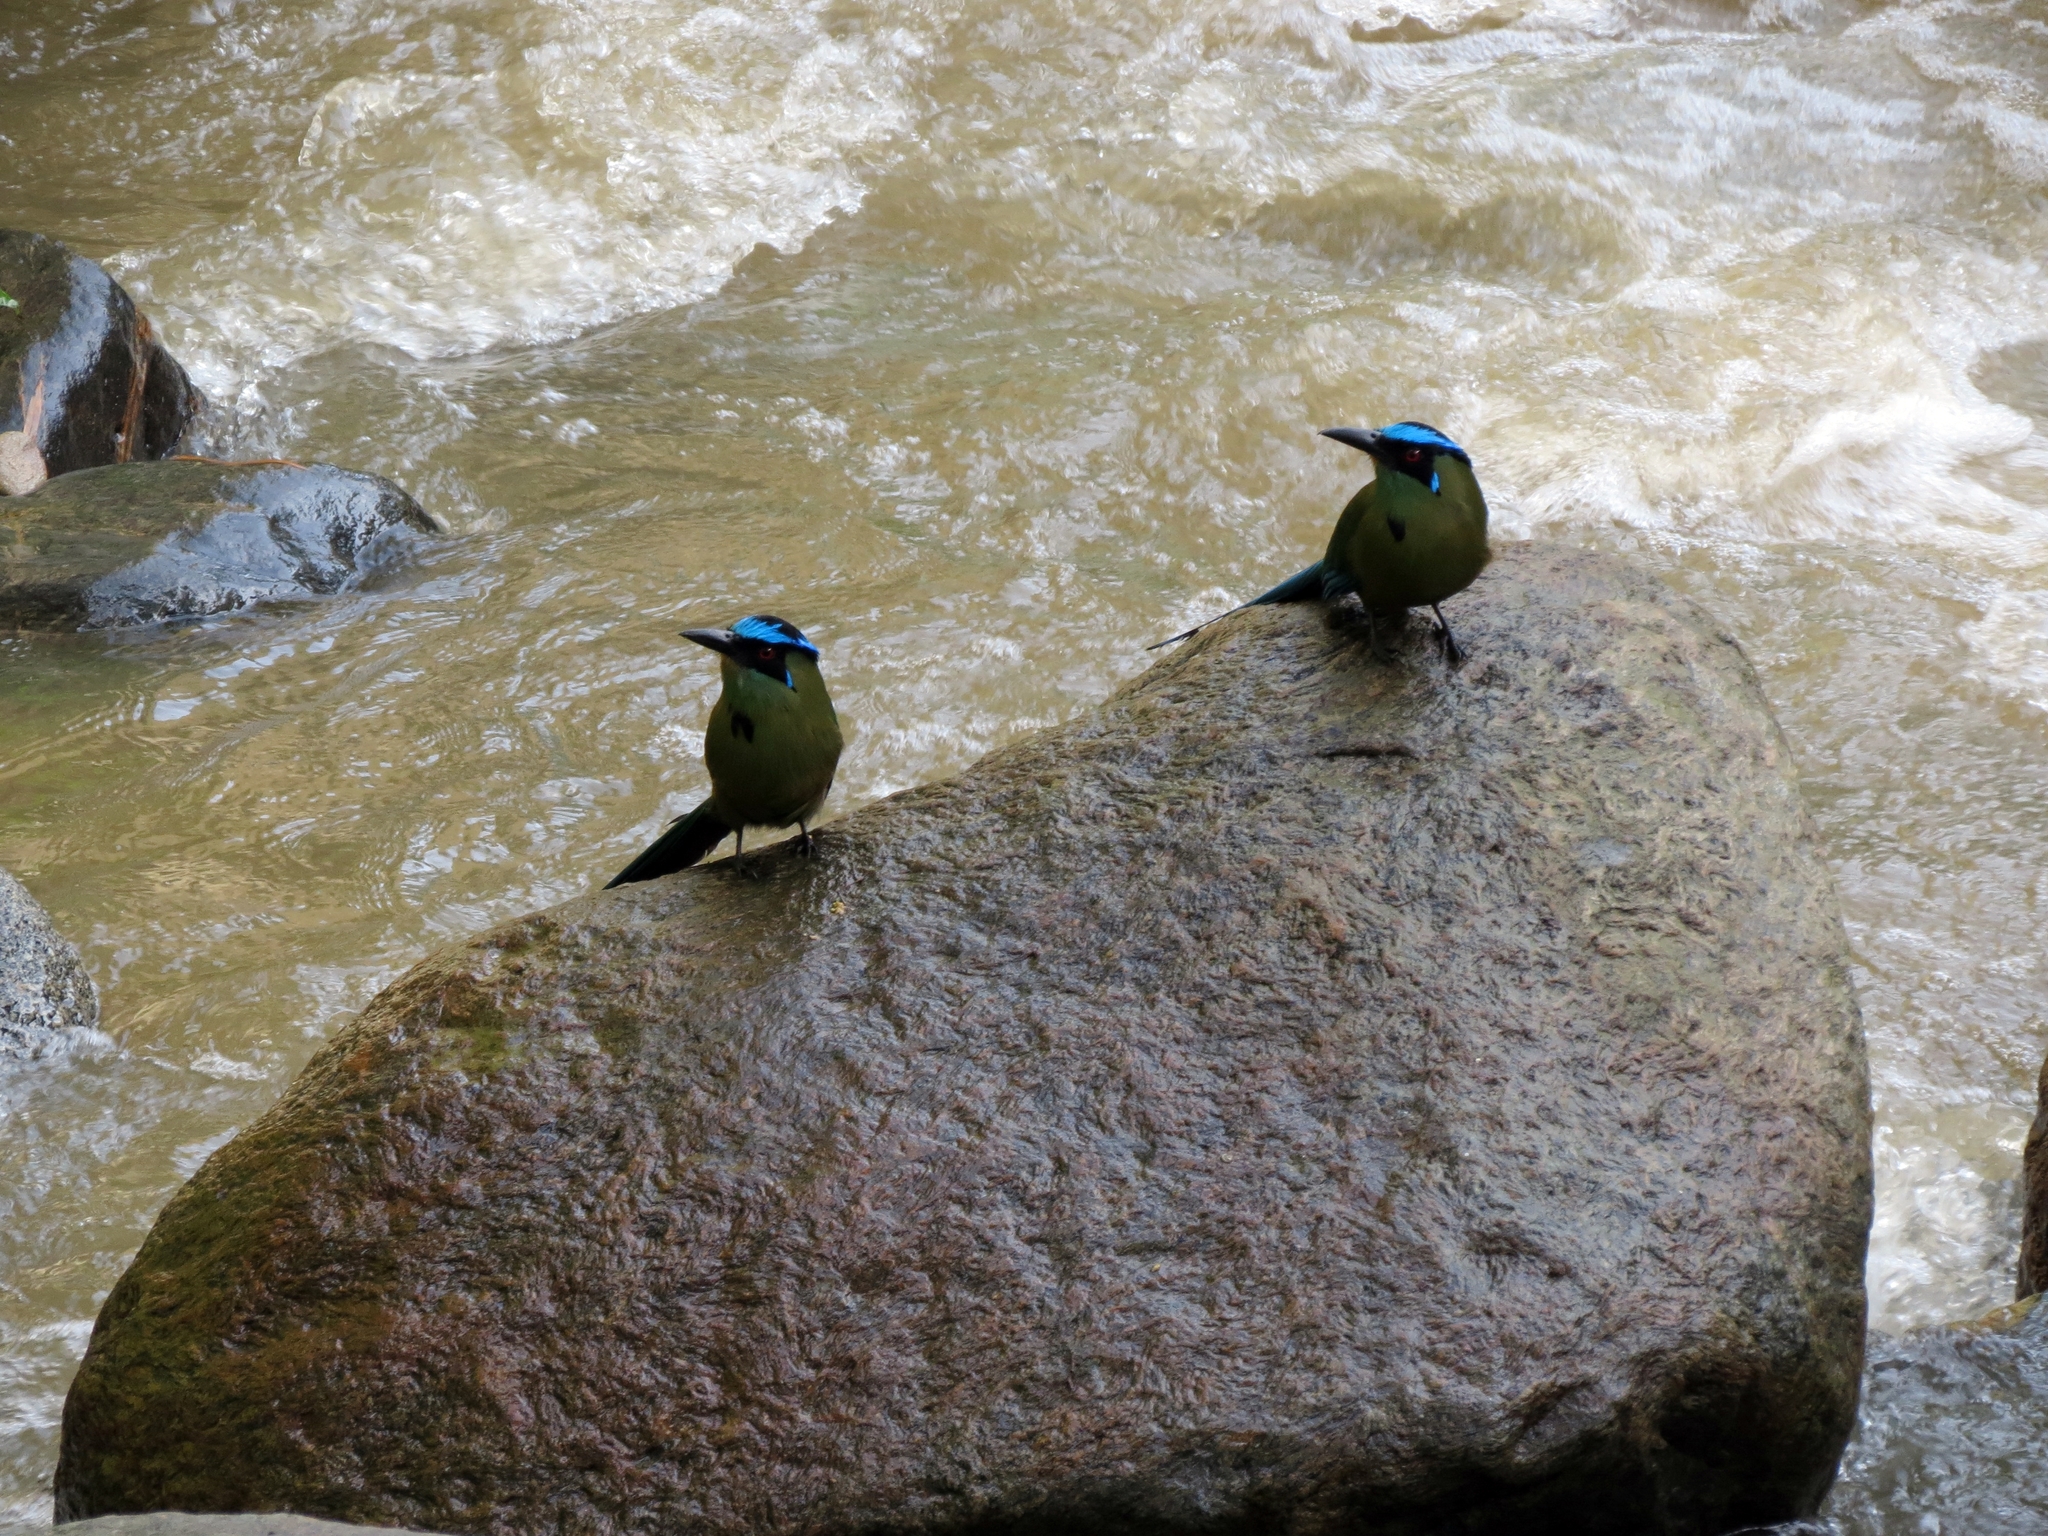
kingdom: Animalia
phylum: Chordata
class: Aves
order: Coraciiformes
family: Momotidae
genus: Momotus
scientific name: Momotus aequatorialis
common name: Andean motmot
